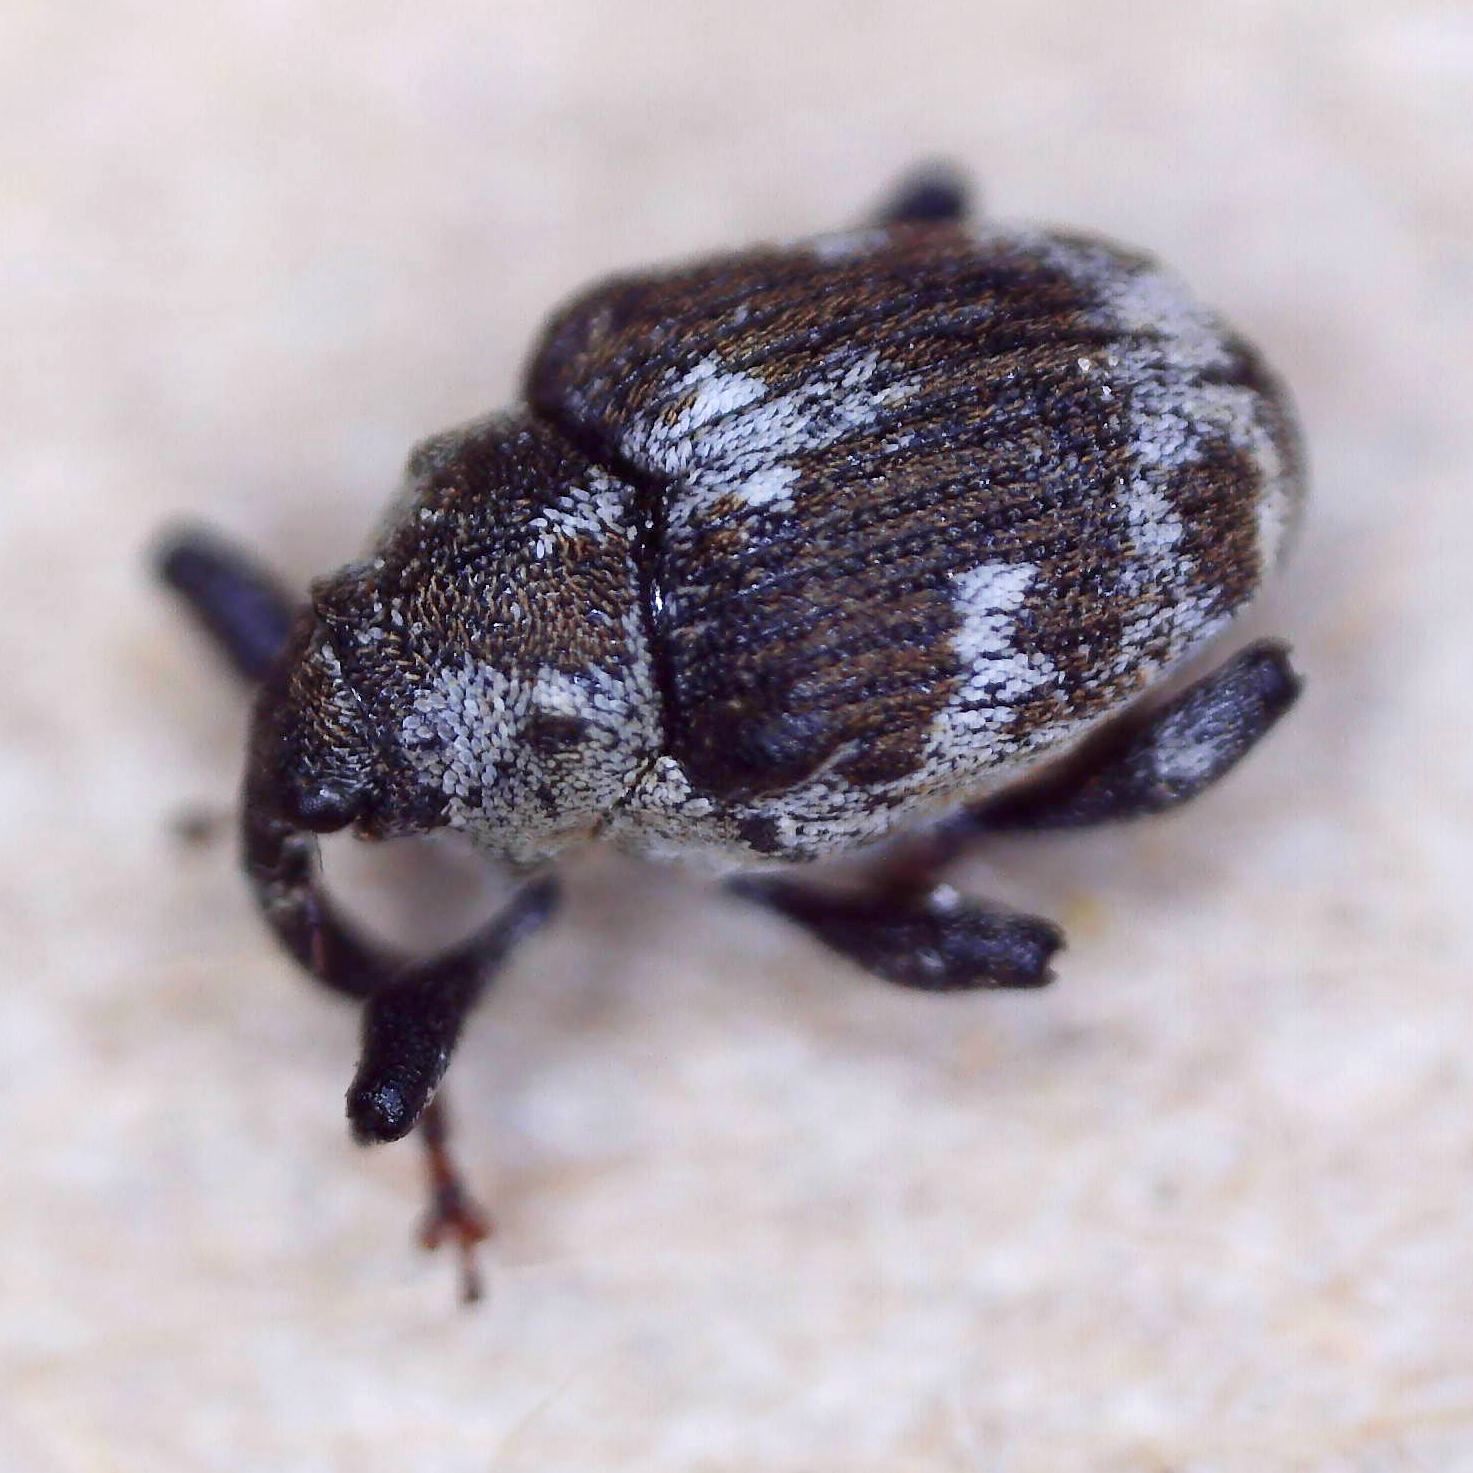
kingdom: Animalia
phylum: Arthropoda
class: Insecta
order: Coleoptera
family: Curculionidae
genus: Hadroplontus
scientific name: Hadroplontus litura
